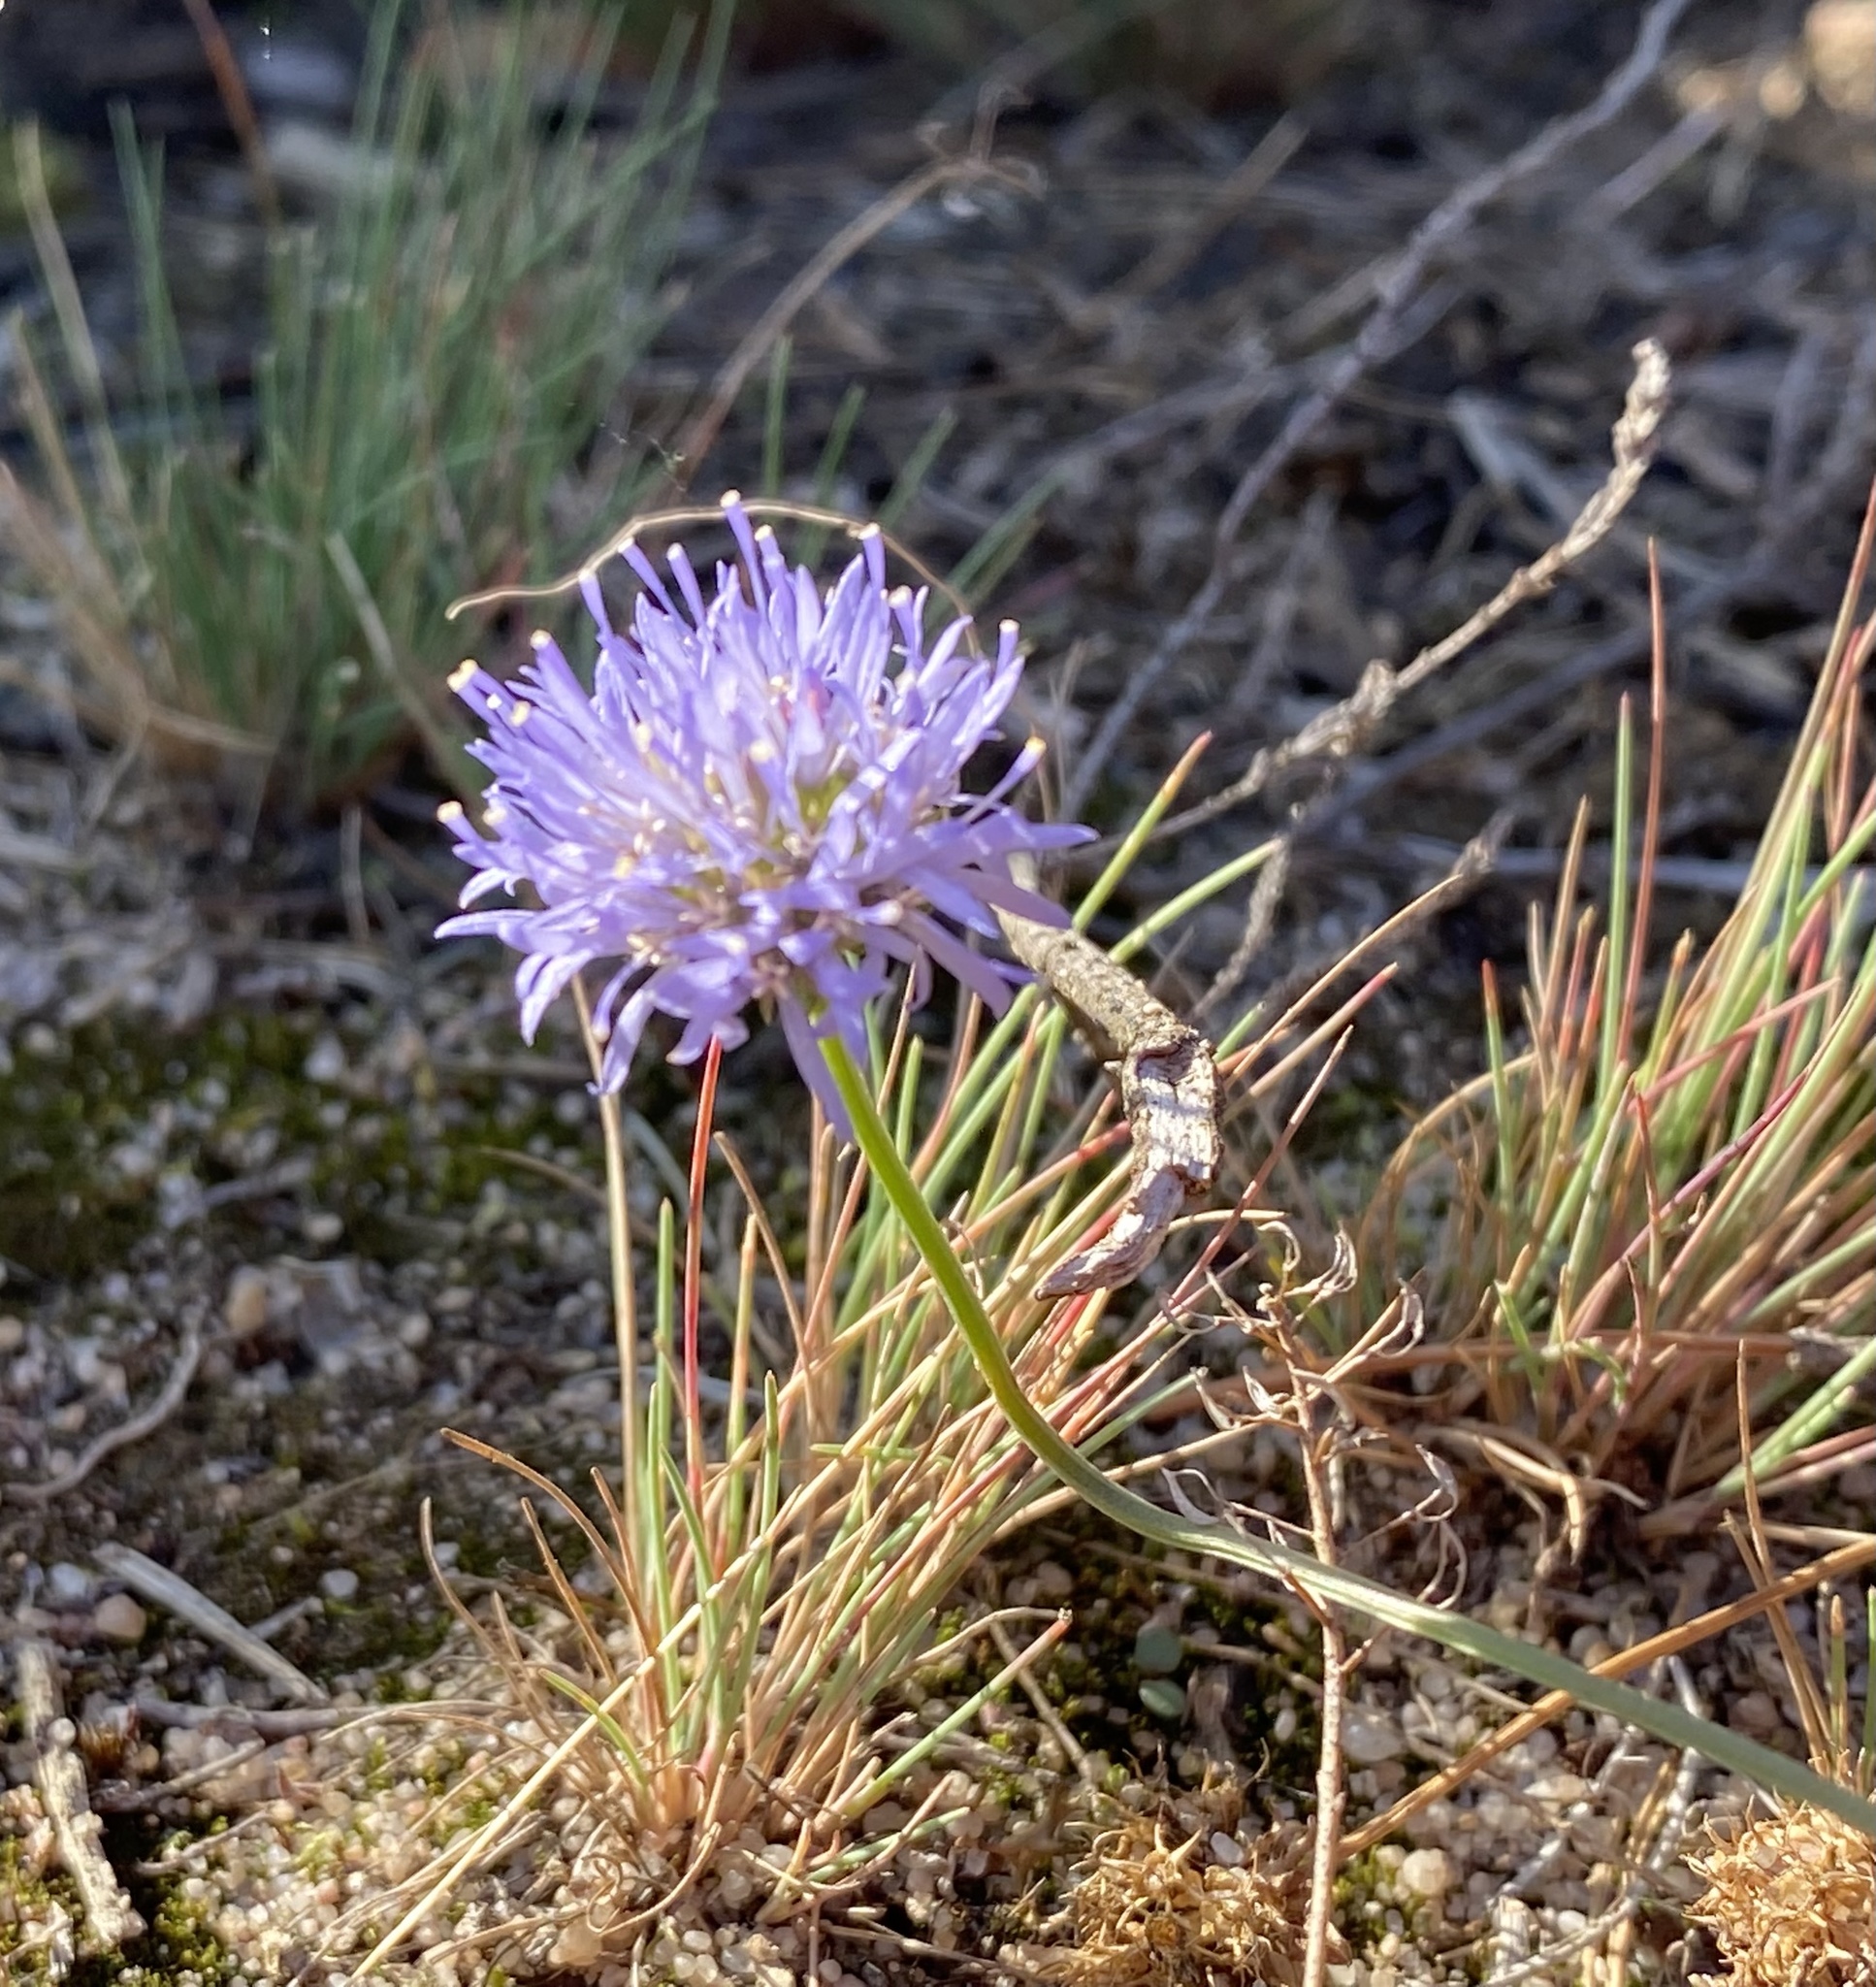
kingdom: Plantae
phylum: Tracheophyta
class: Magnoliopsida
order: Asterales
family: Campanulaceae
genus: Jasione
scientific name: Jasione montana
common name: Sheep's-bit
